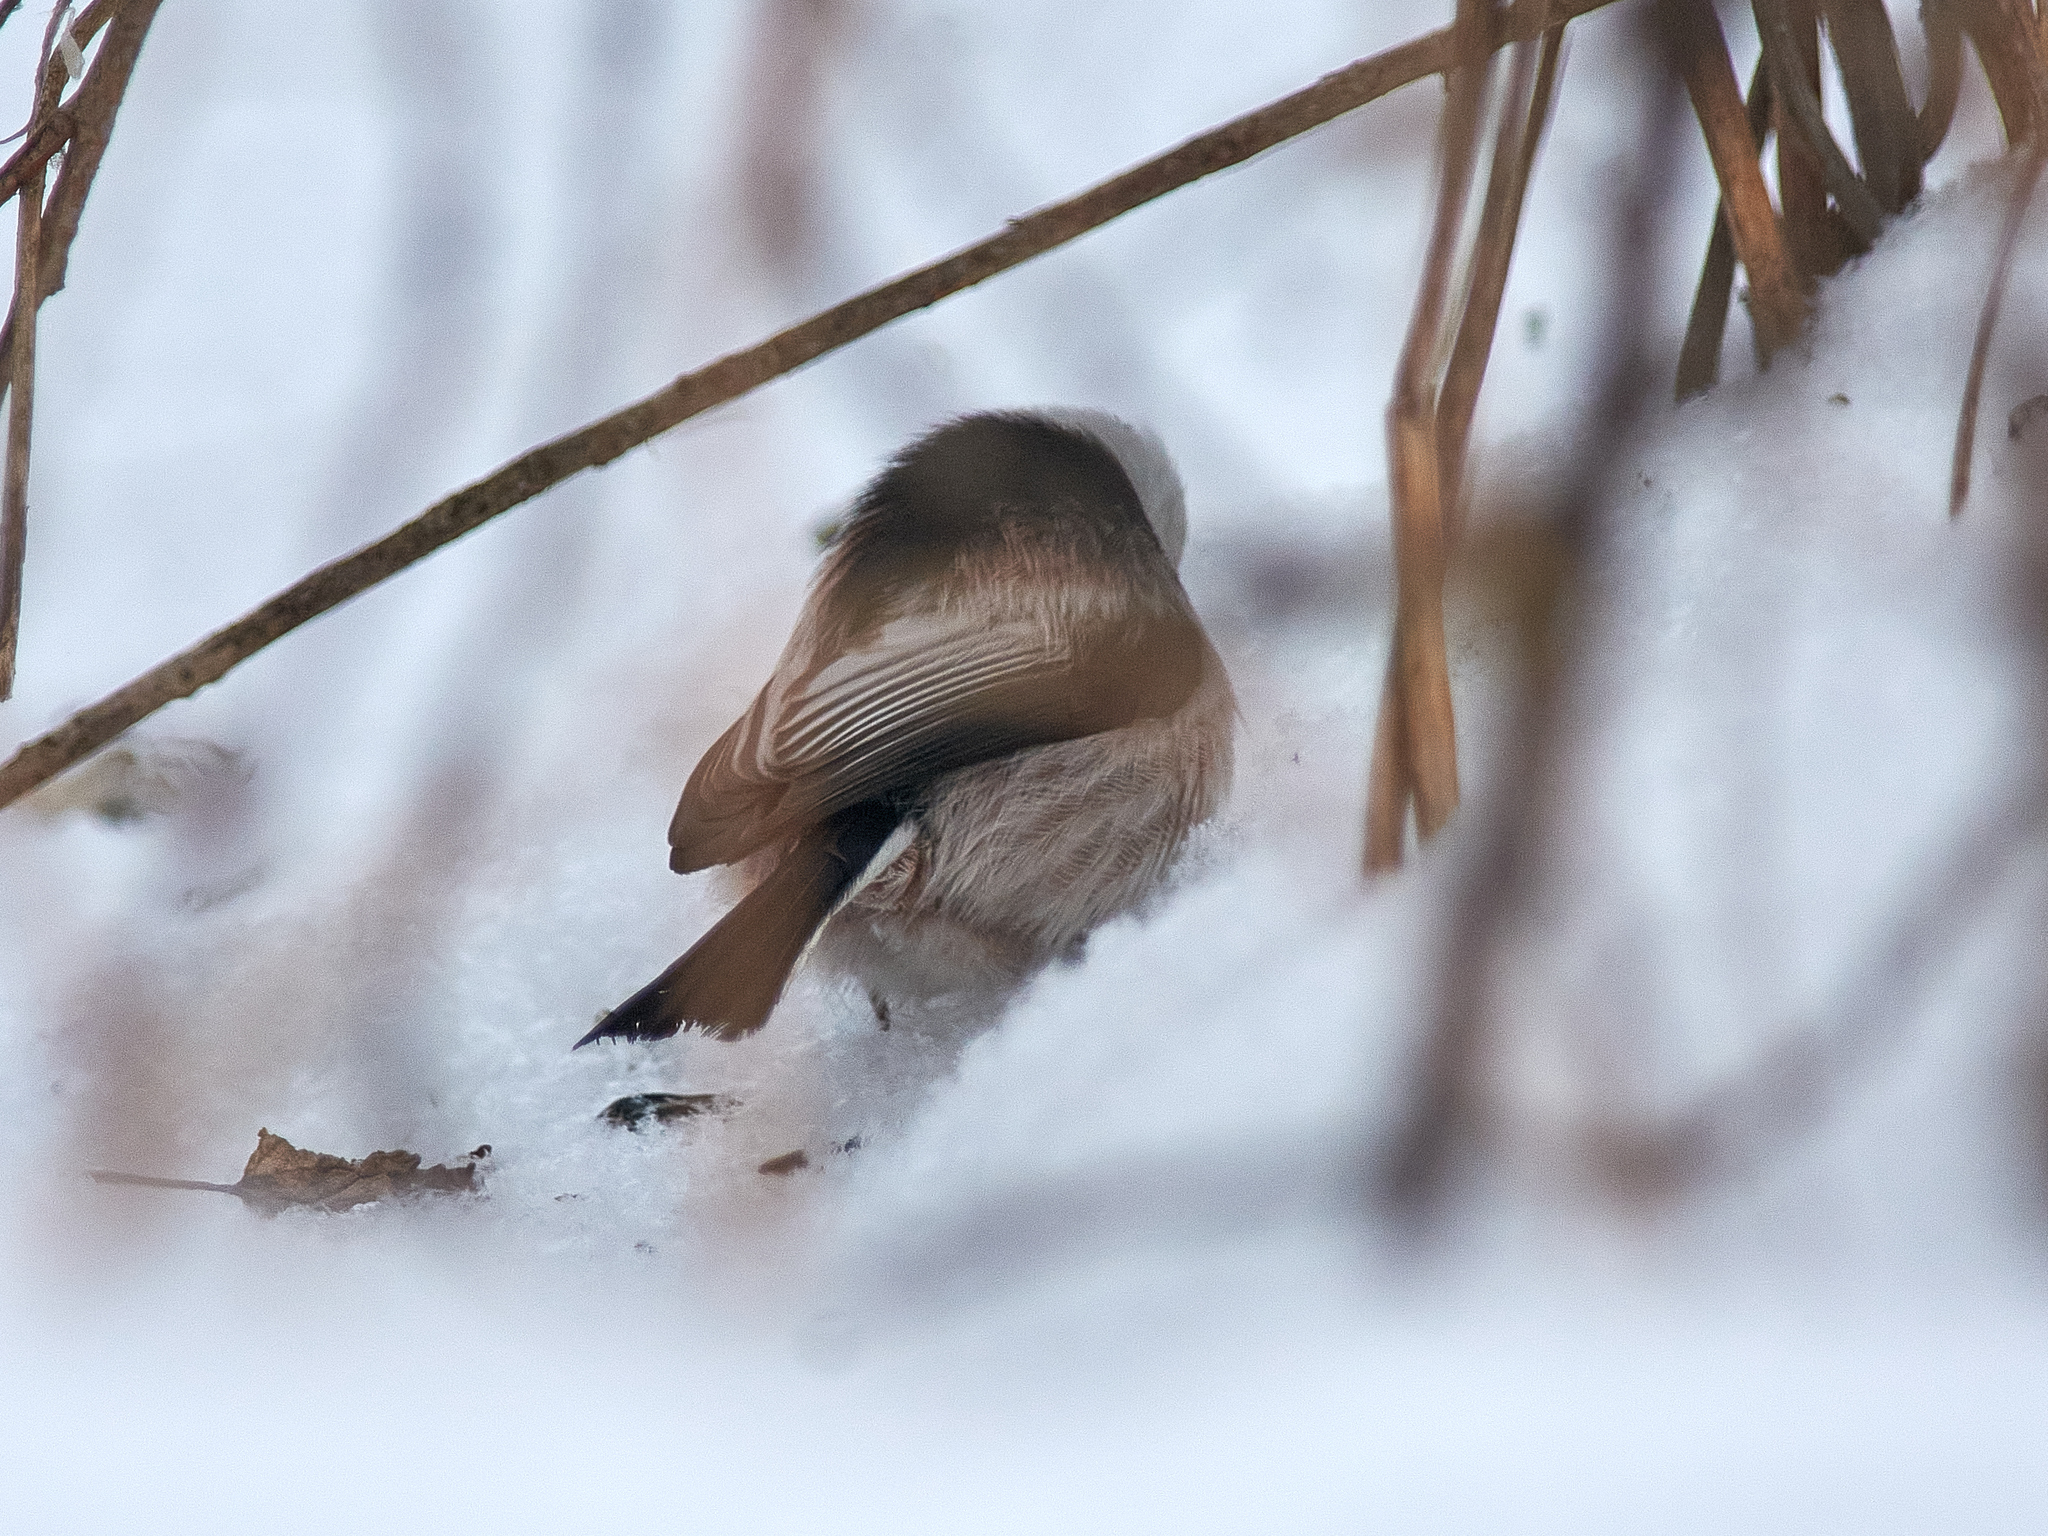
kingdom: Animalia
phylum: Chordata
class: Aves
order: Passeriformes
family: Aegithalidae
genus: Aegithalos
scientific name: Aegithalos caudatus
